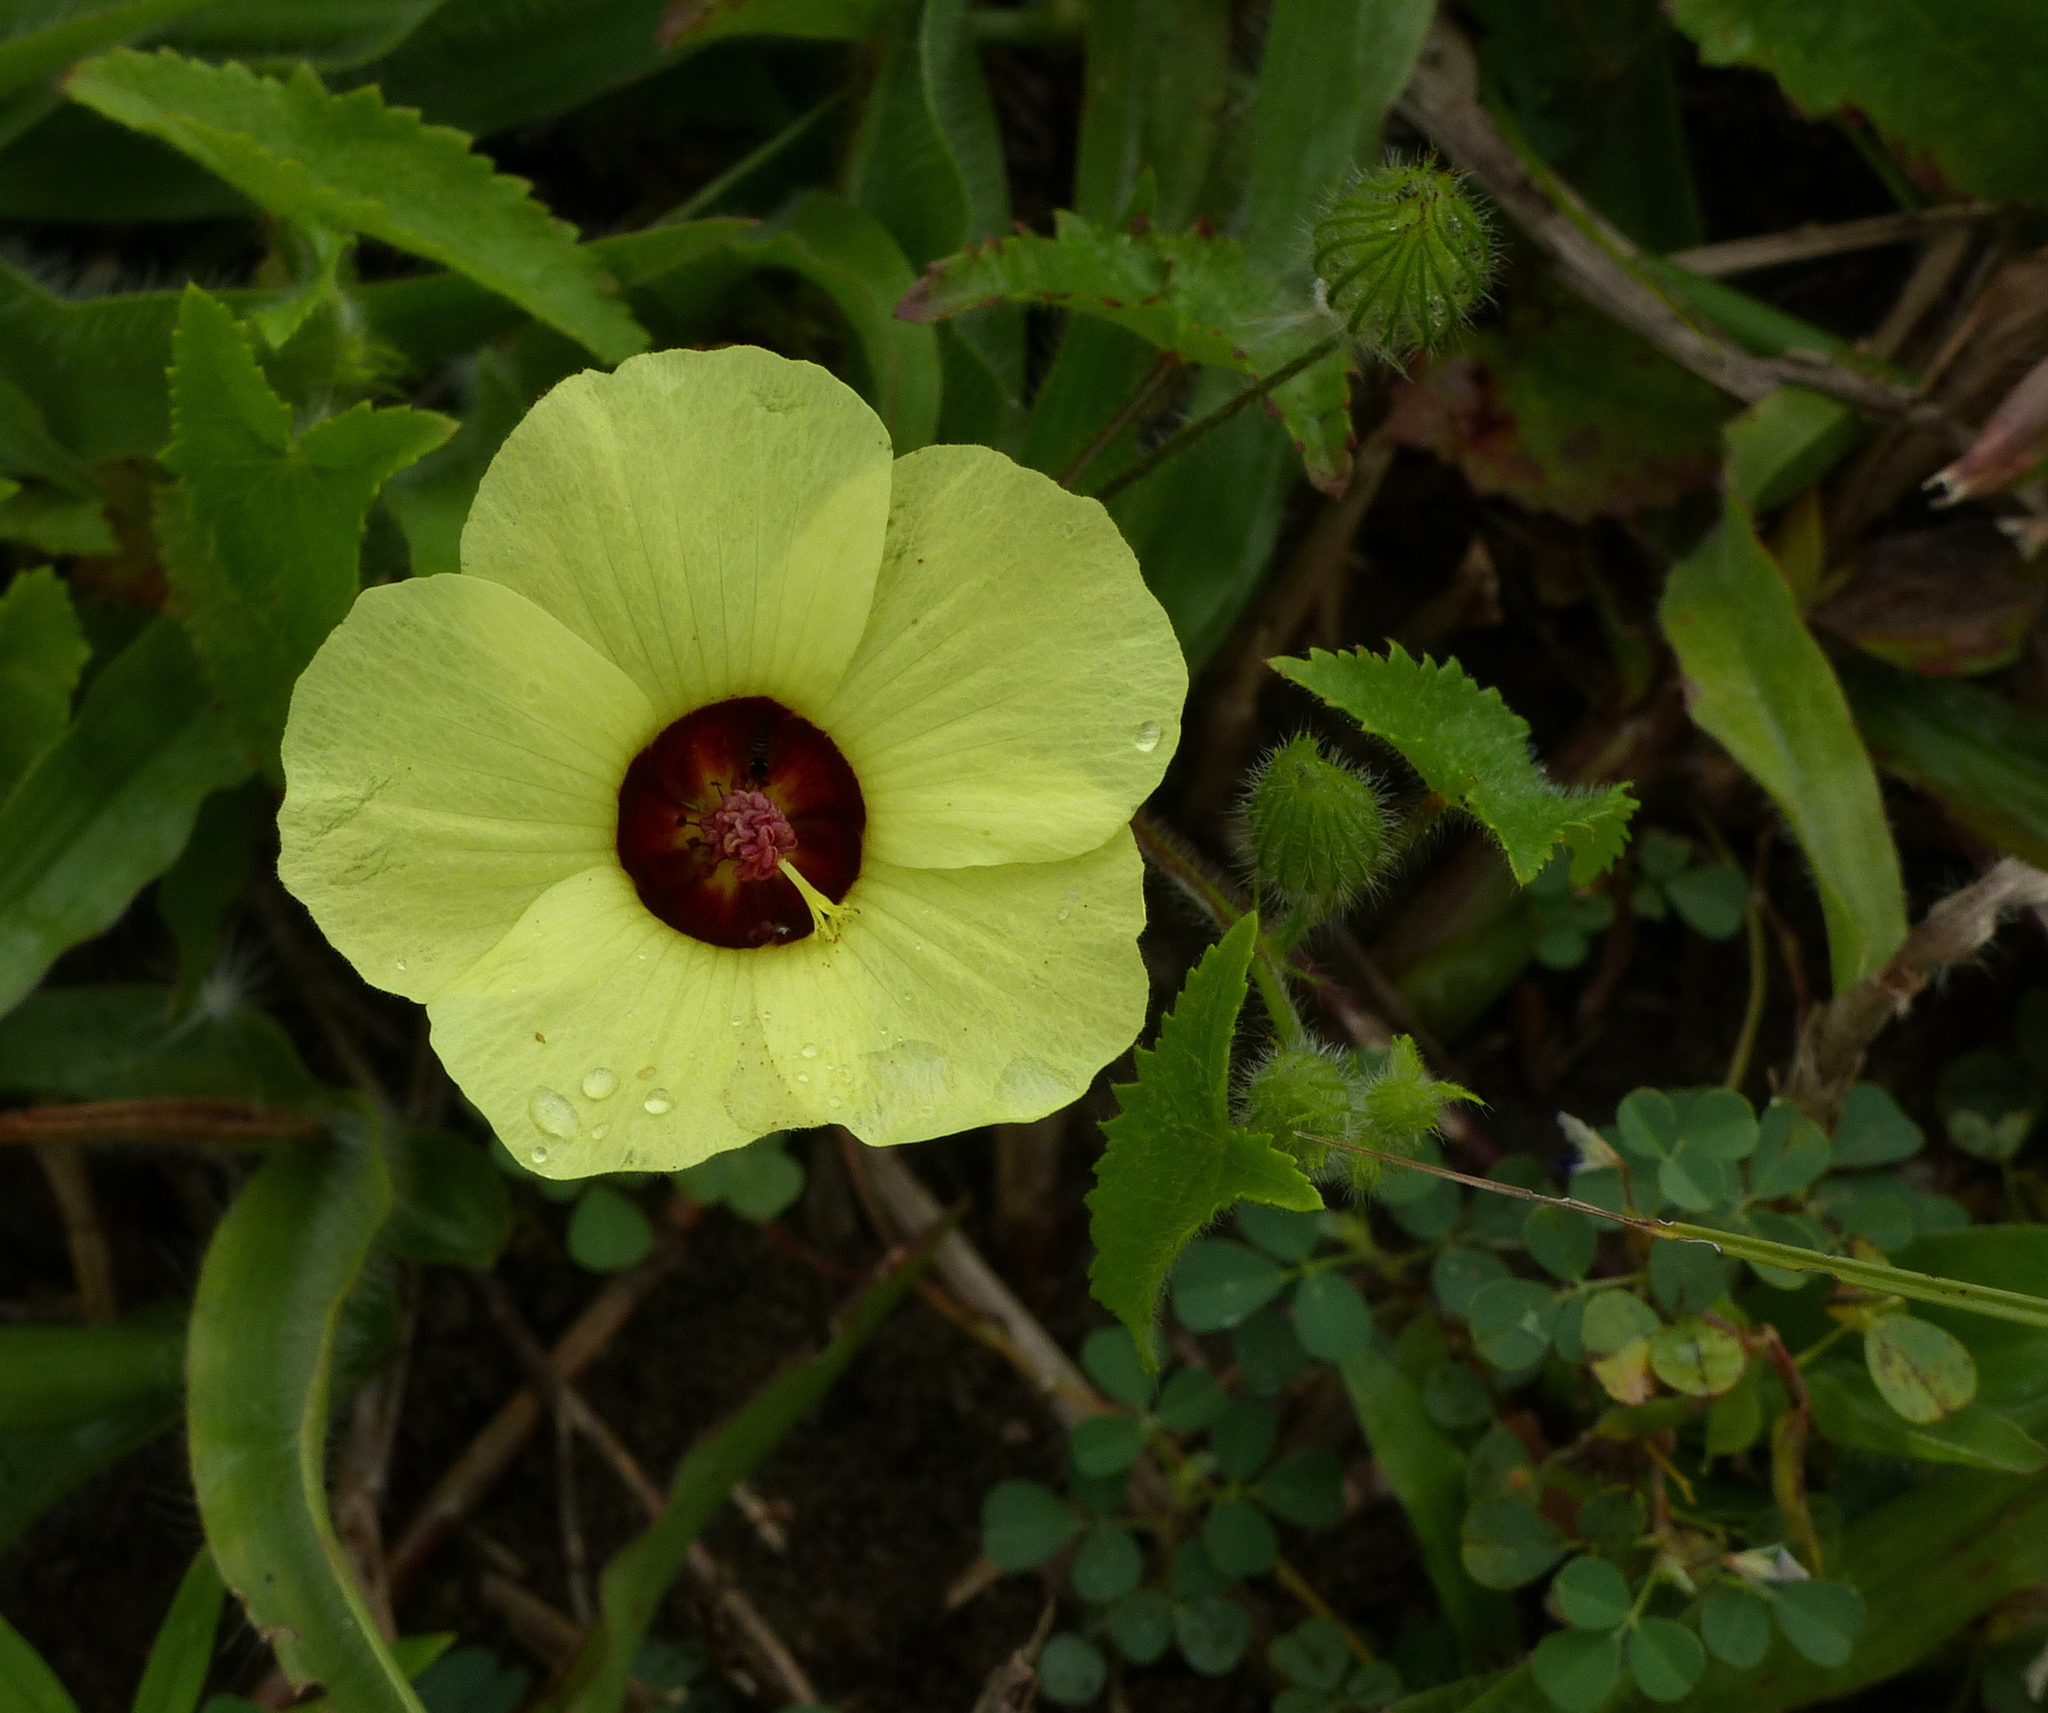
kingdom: Plantae
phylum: Tracheophyta
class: Magnoliopsida
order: Malvales
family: Malvaceae
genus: Pavonia
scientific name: Pavonia cancellata
